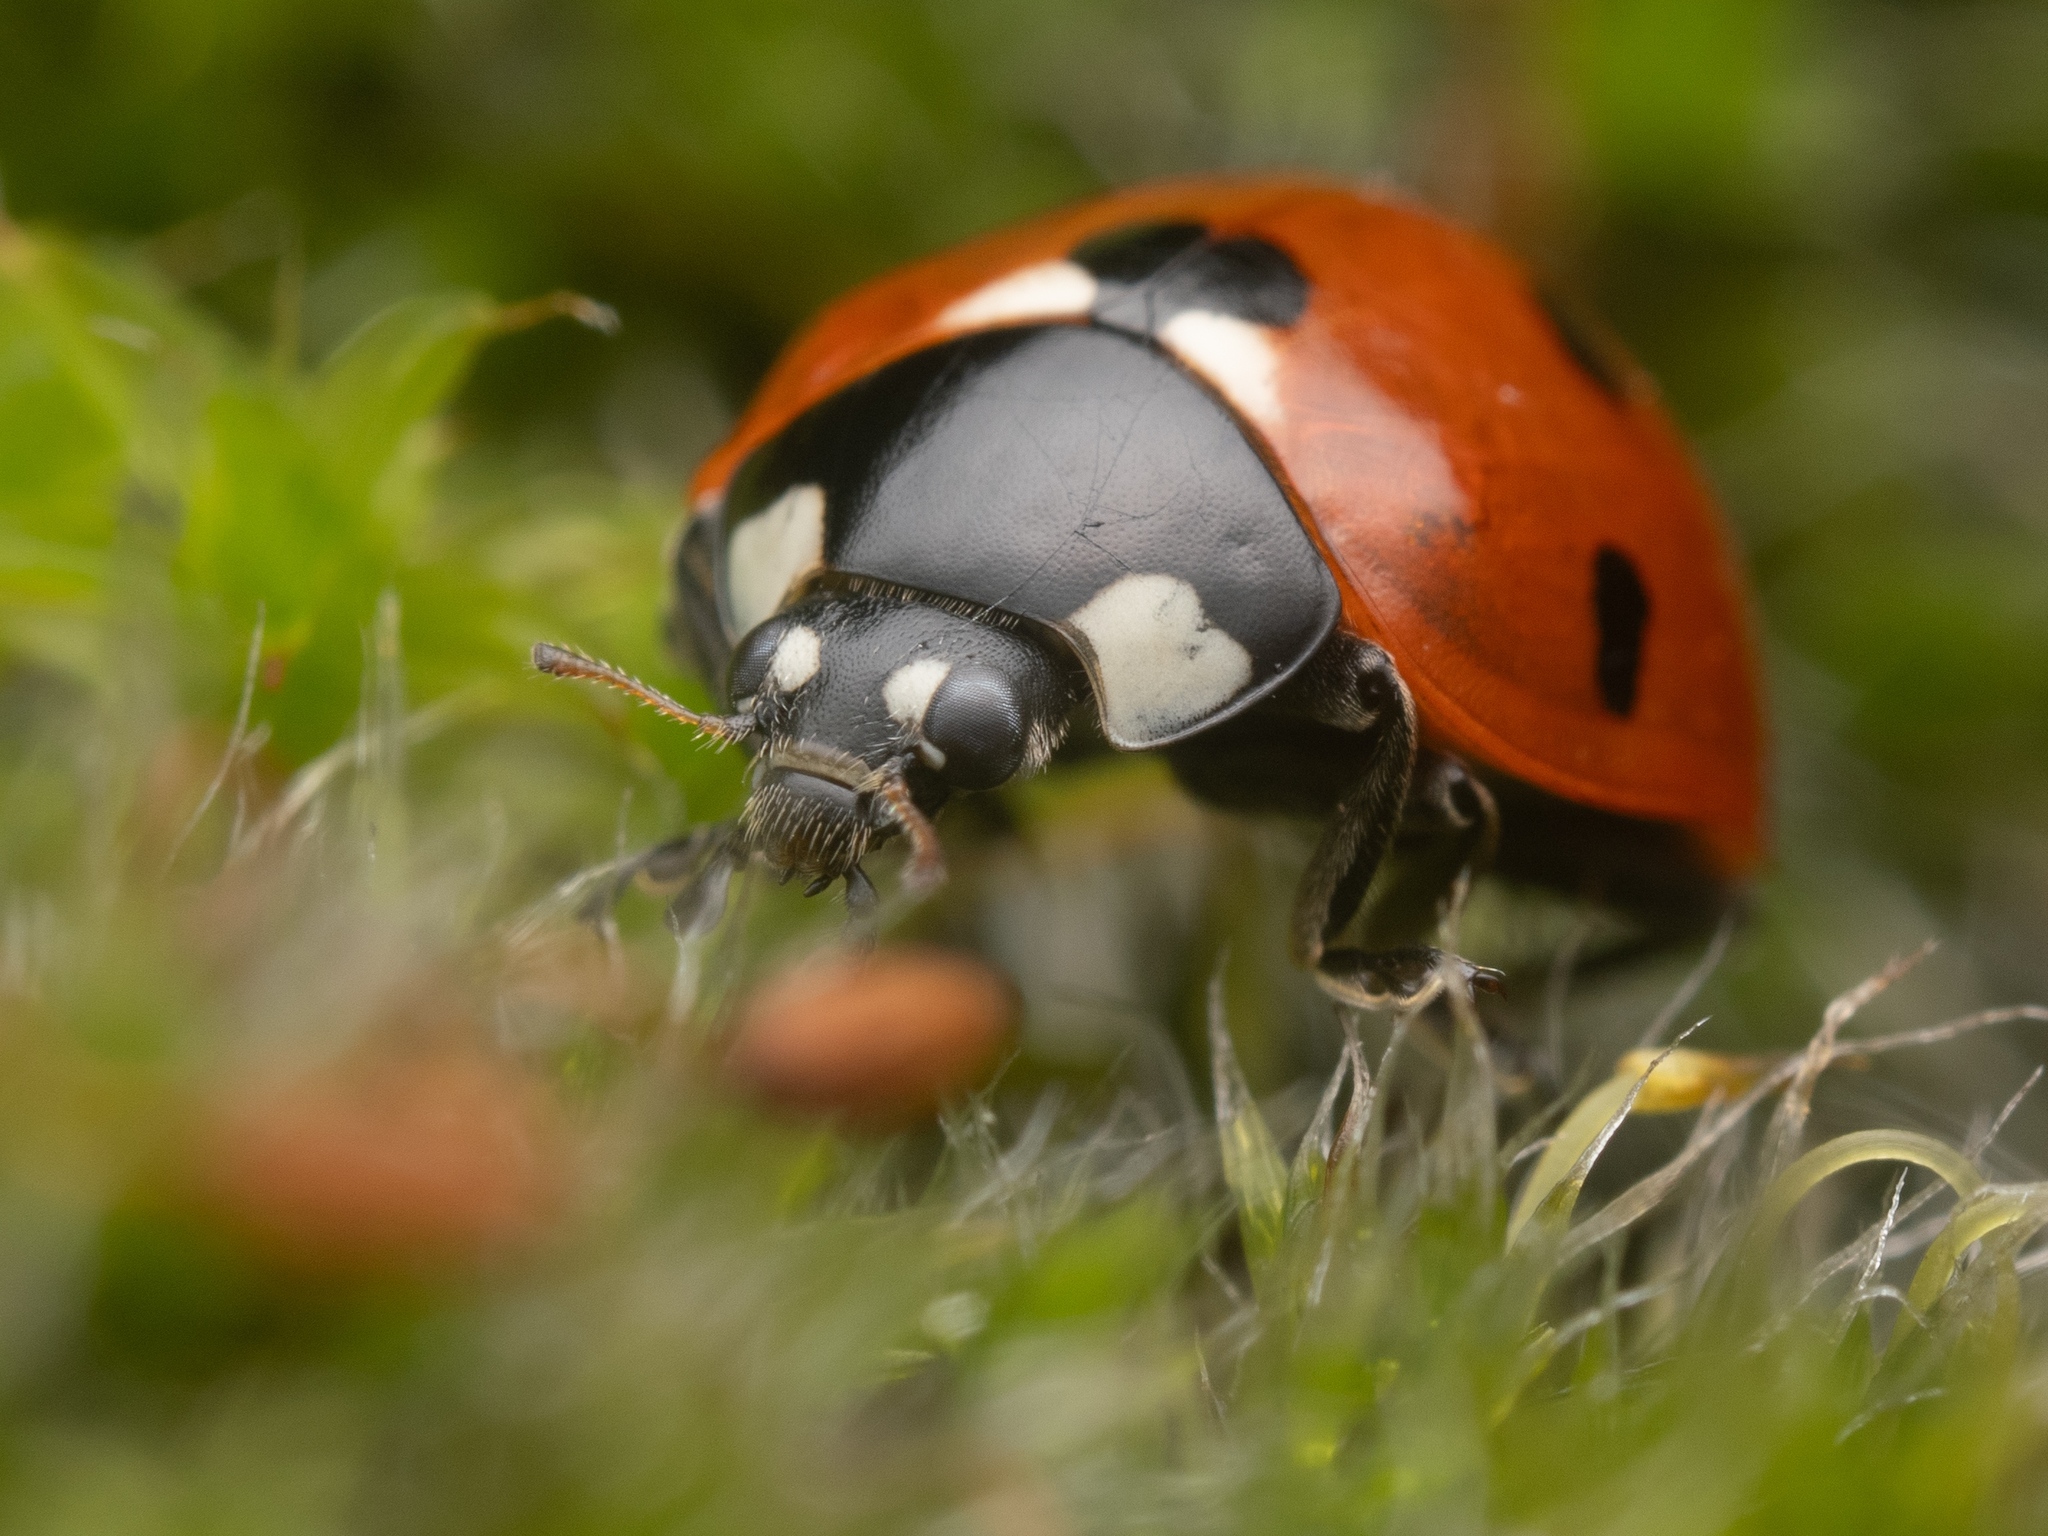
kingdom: Animalia
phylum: Arthropoda
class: Insecta
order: Coleoptera
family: Coccinellidae
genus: Coccinella
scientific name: Coccinella septempunctata
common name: Sevenspotted lady beetle
